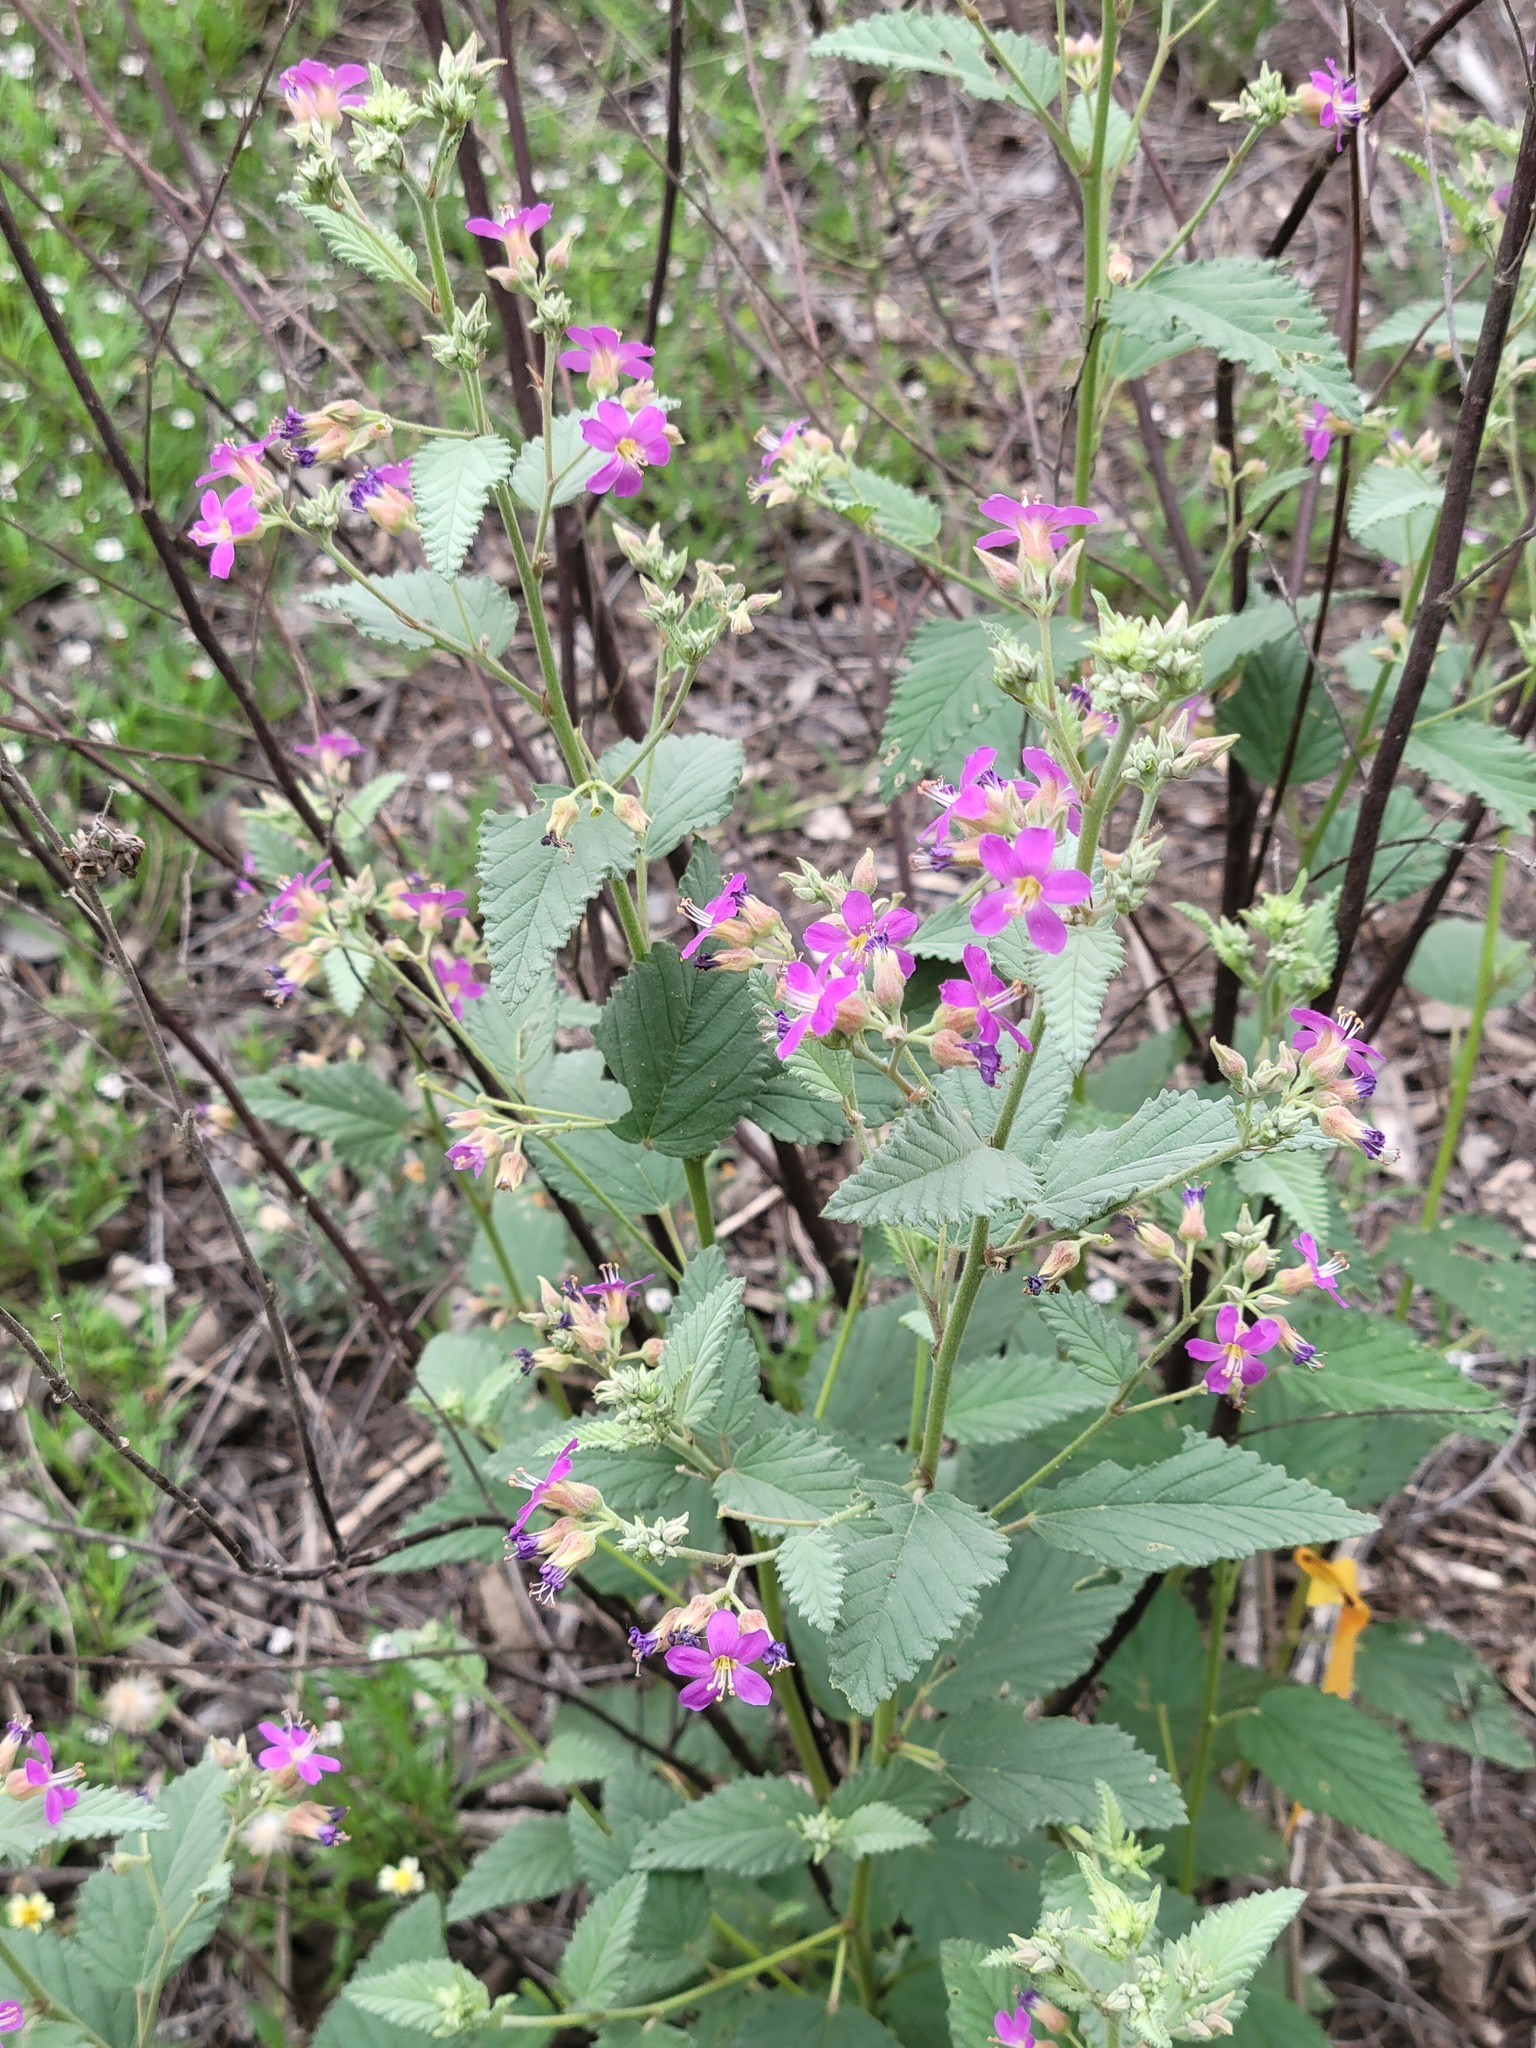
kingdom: Plantae
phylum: Tracheophyta
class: Magnoliopsida
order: Malvales
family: Malvaceae
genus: Melochia
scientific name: Melochia tomentosa
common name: Black torch
